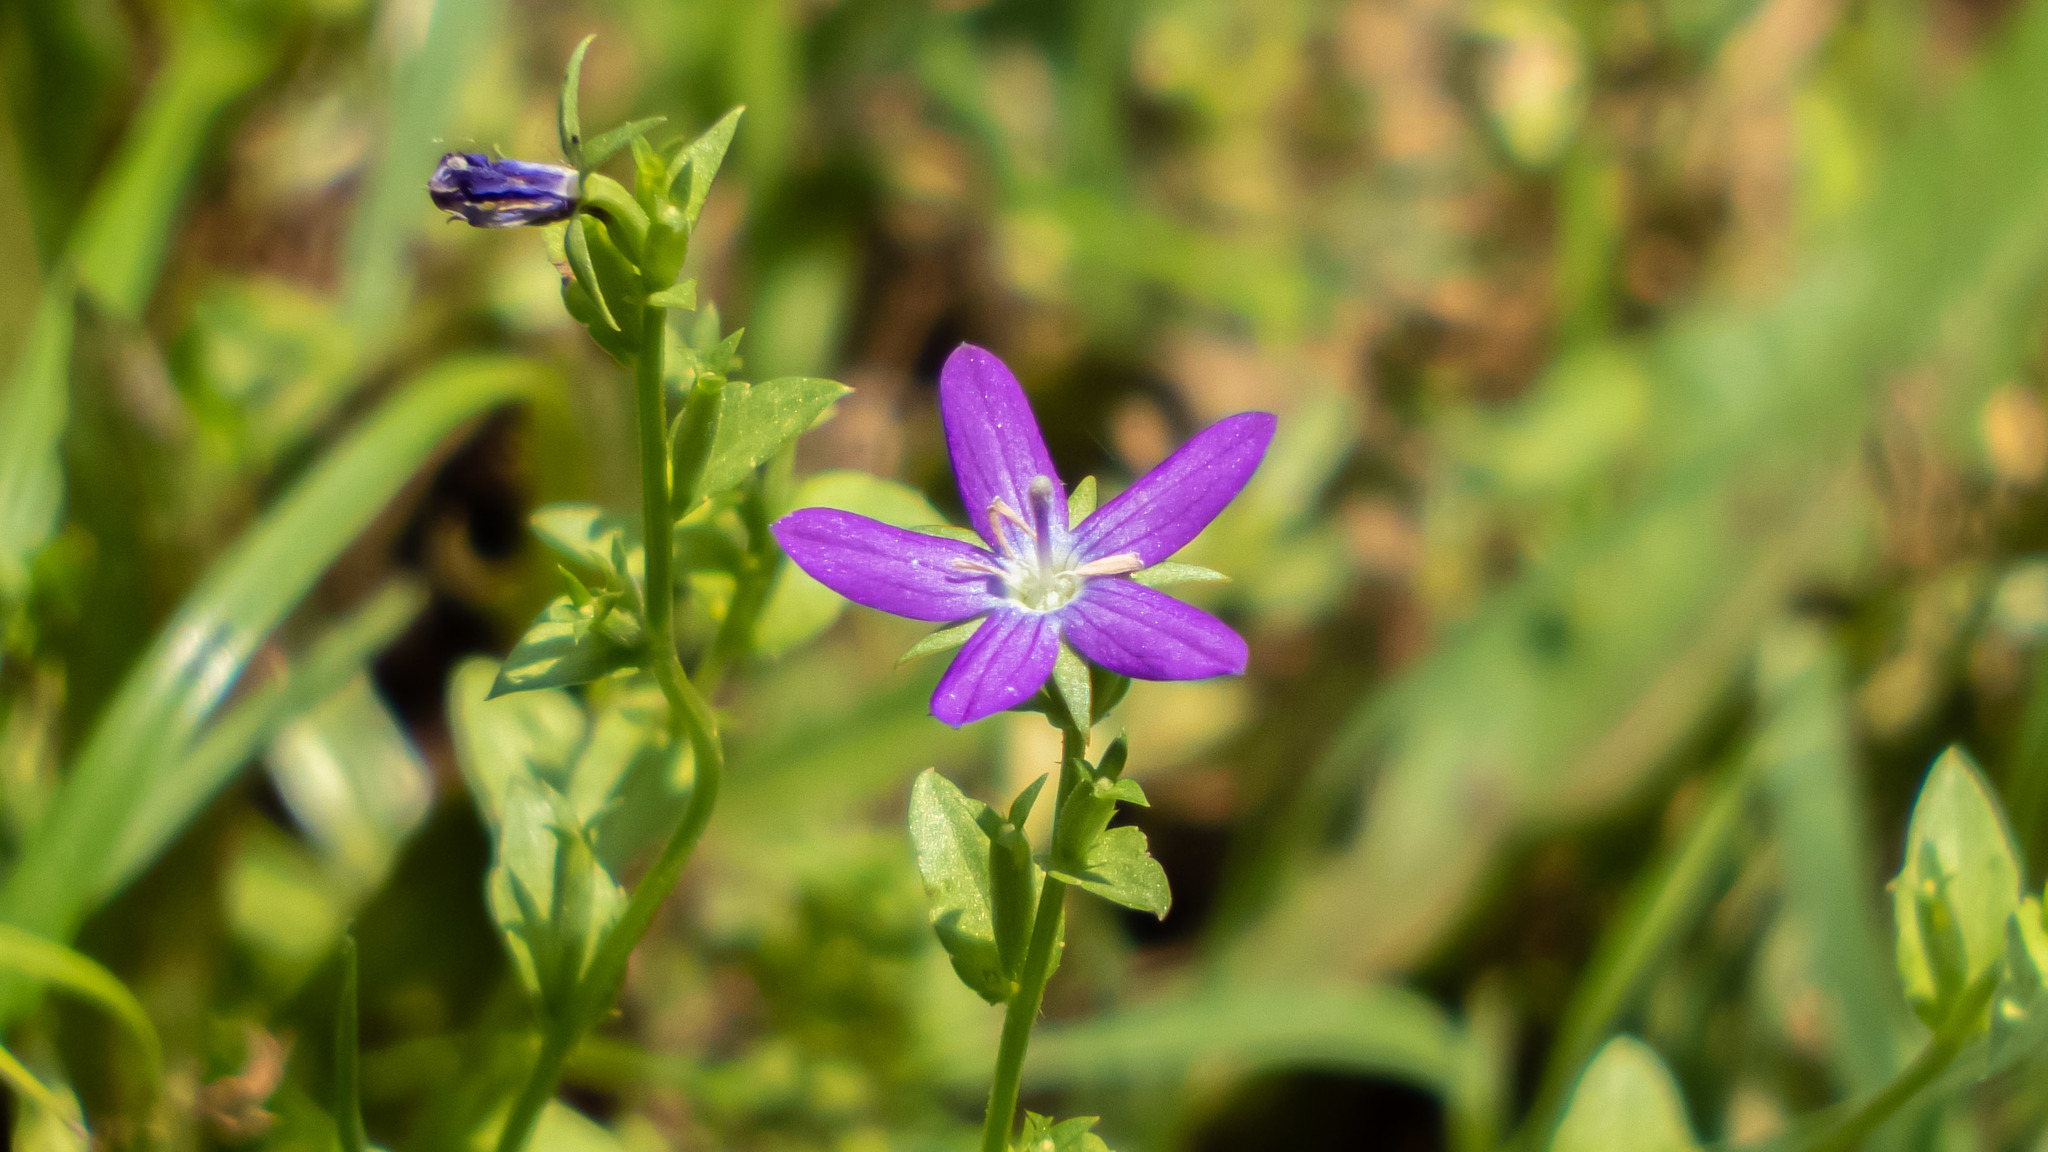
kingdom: Plantae
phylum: Tracheophyta
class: Magnoliopsida
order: Asterales
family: Campanulaceae
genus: Triodanis
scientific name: Triodanis biflora
